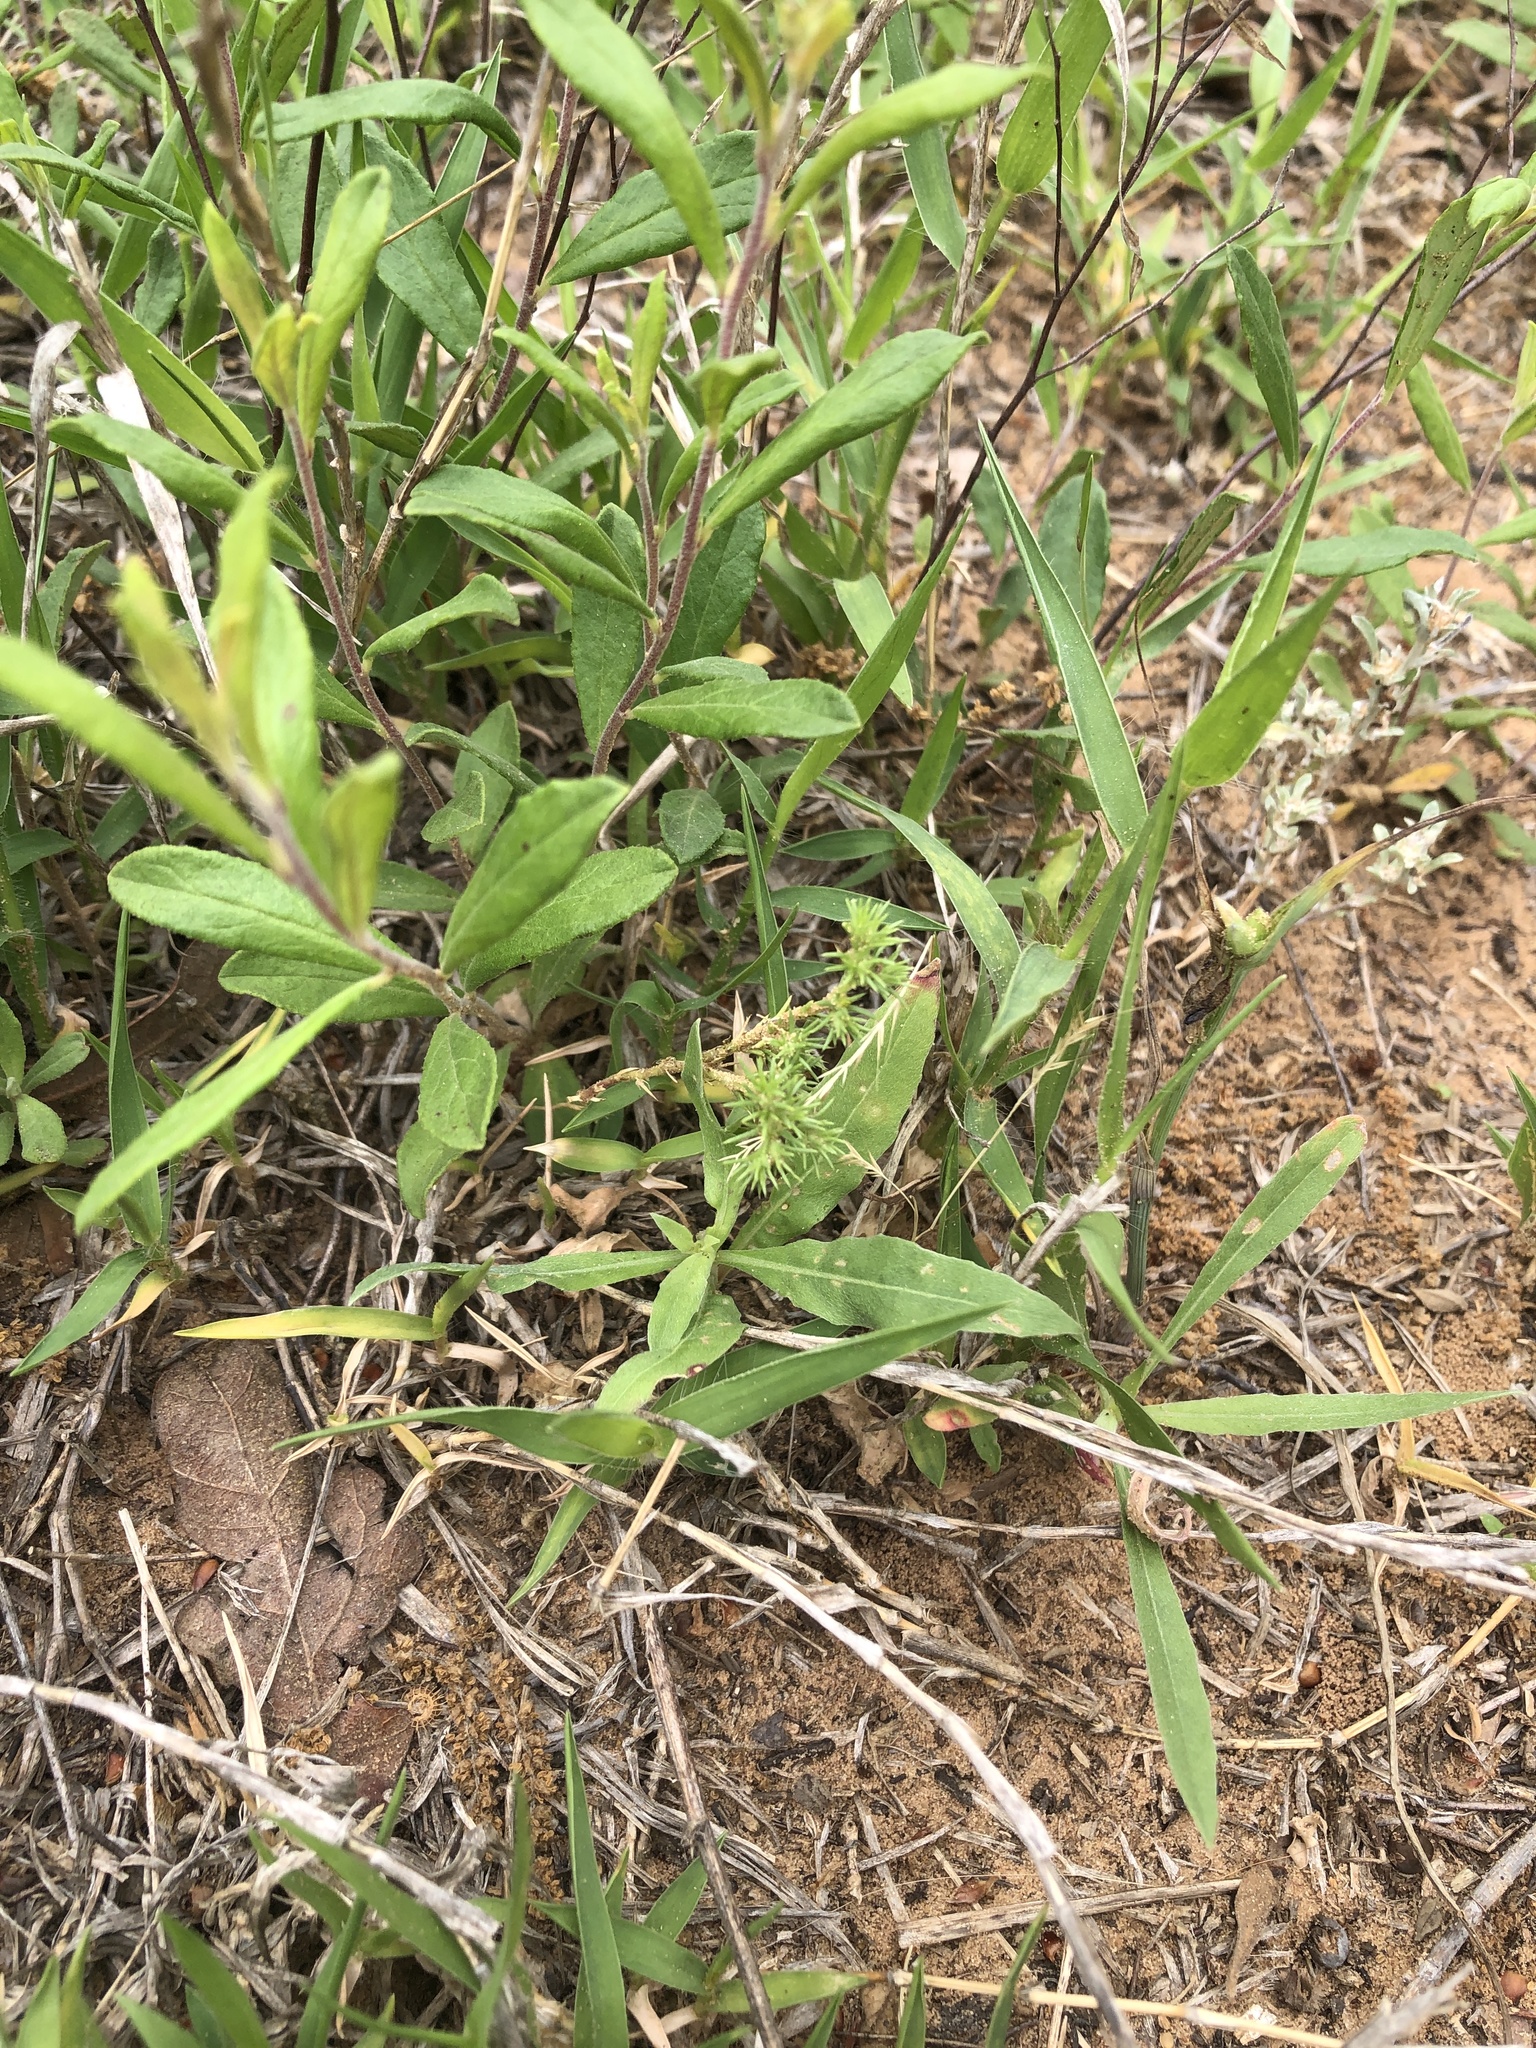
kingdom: Plantae
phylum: Tracheophyta
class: Magnoliopsida
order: Caryophyllales
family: Caryophyllaceae
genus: Loeflingia
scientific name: Loeflingia squarrosa
